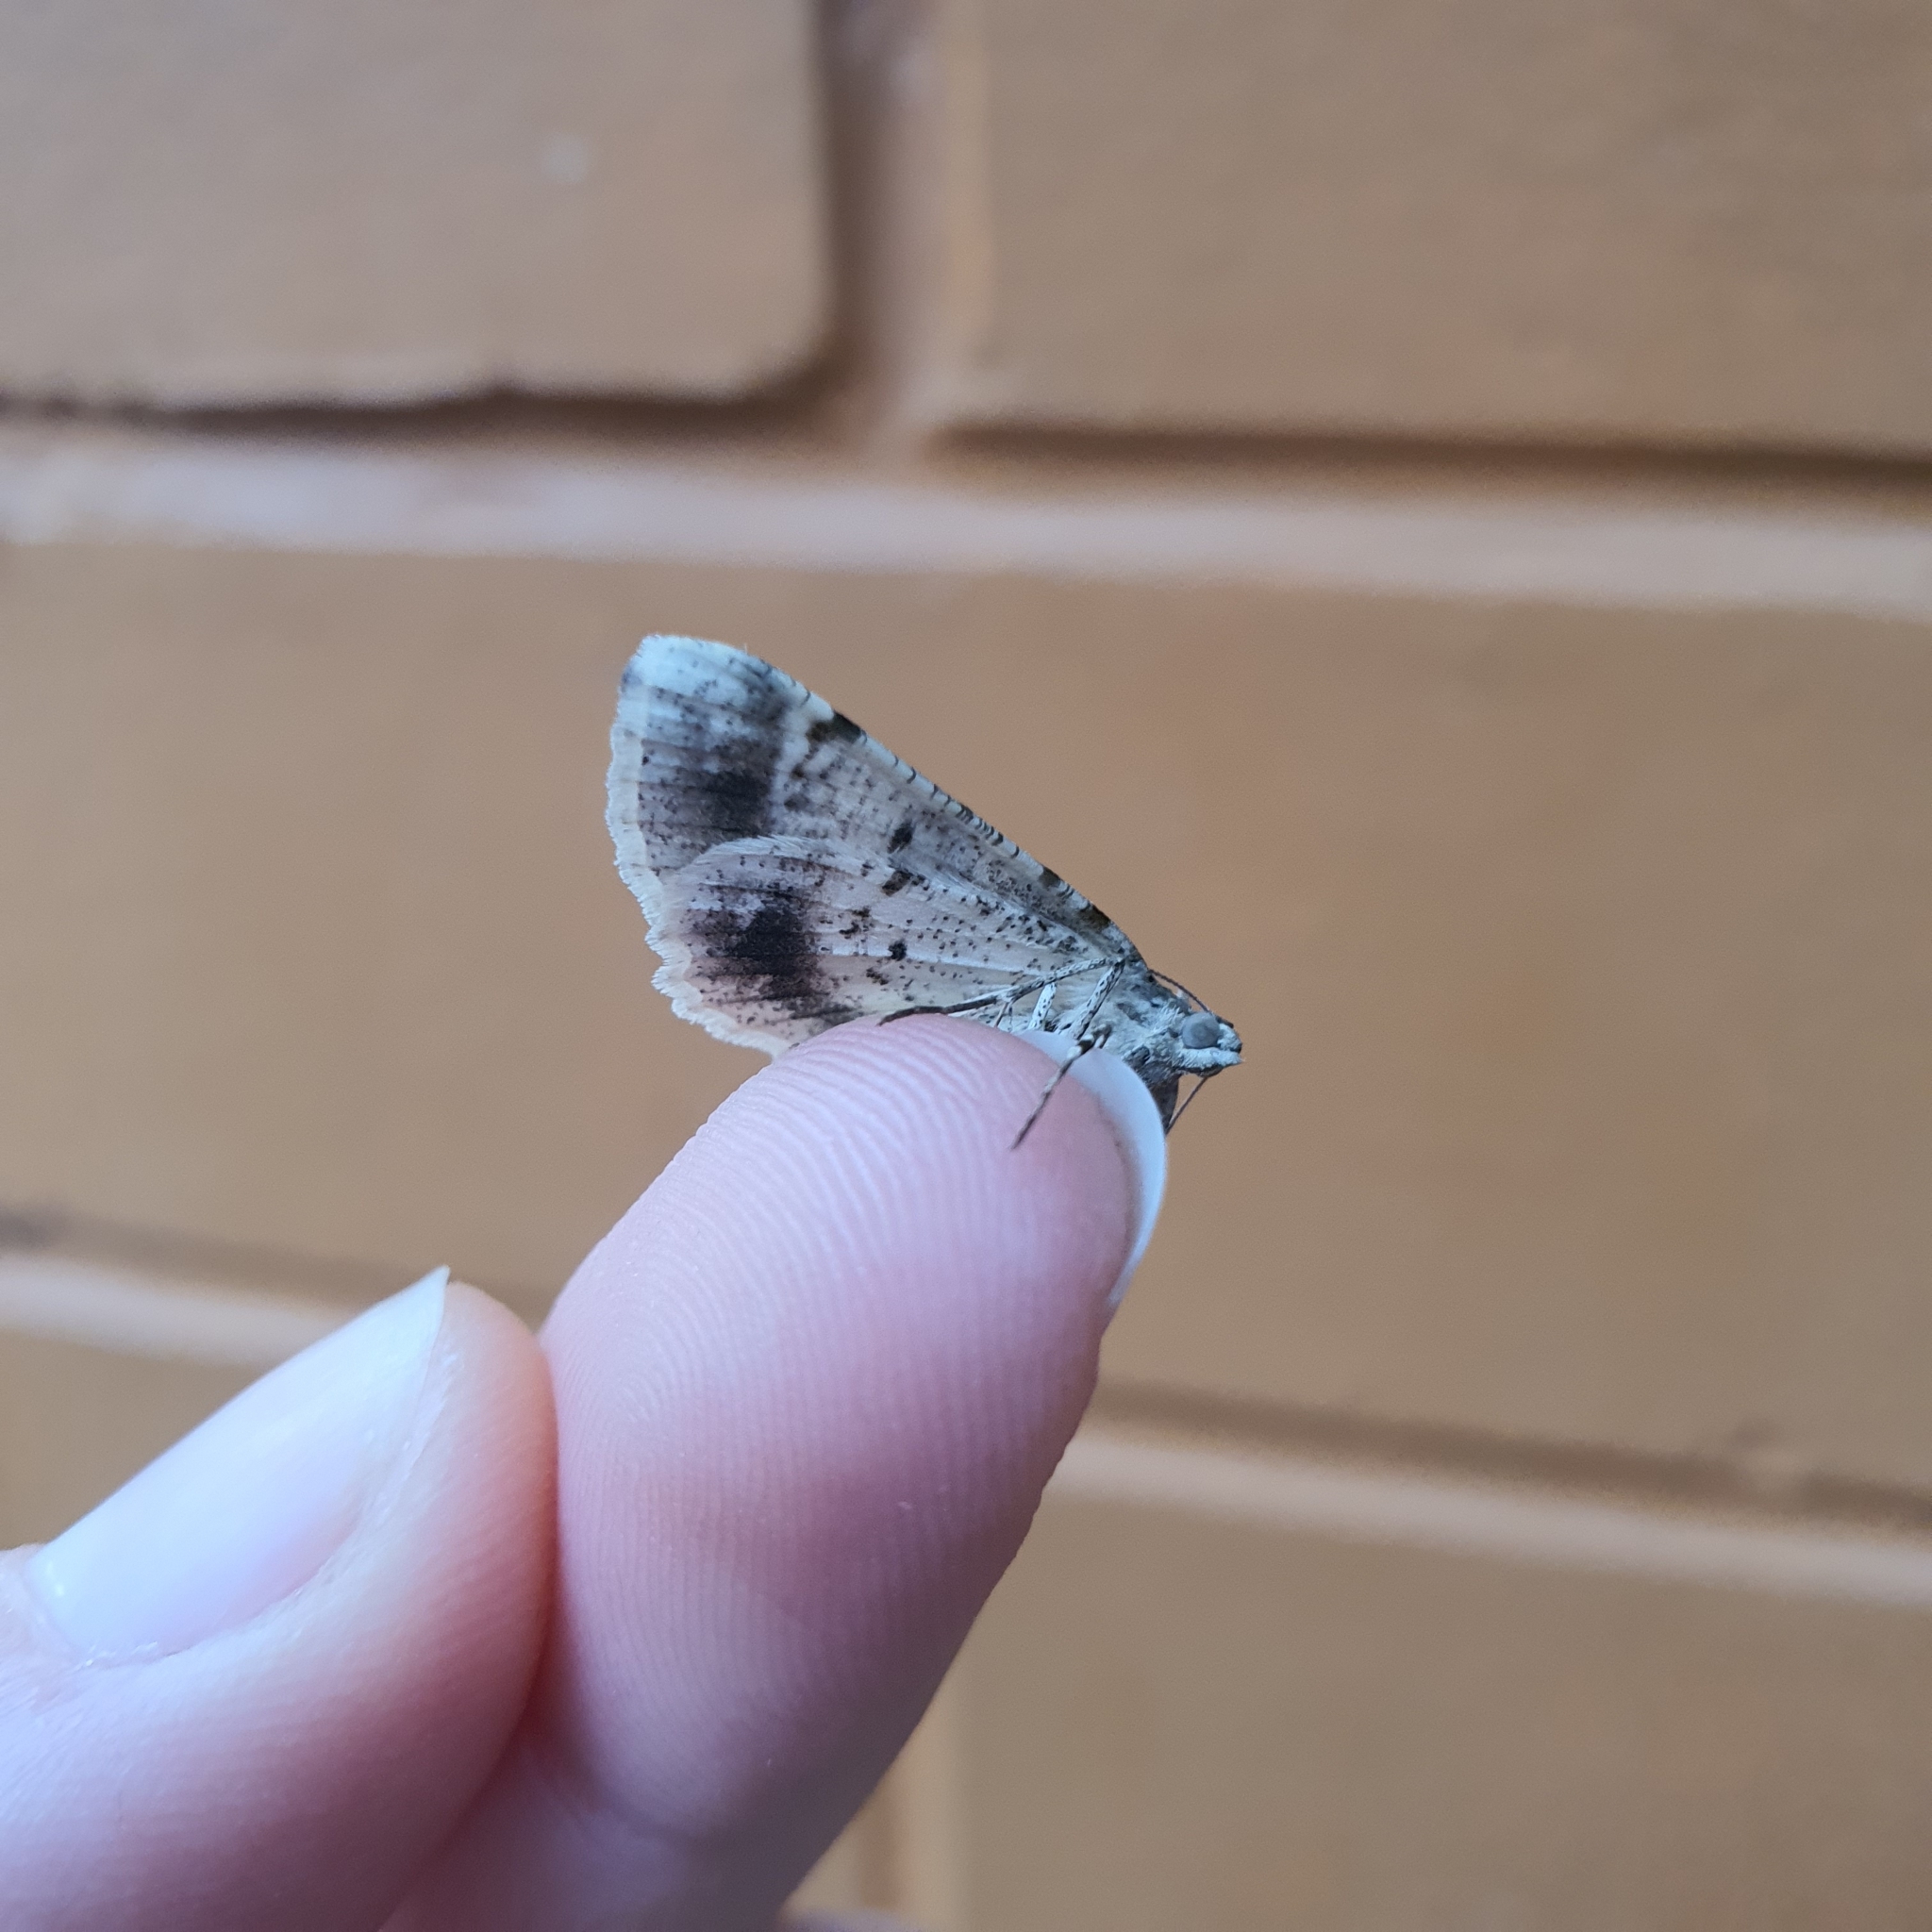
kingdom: Animalia
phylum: Arthropoda
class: Insecta
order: Lepidoptera
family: Geometridae
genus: Syneora
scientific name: Syneora hemeropa
